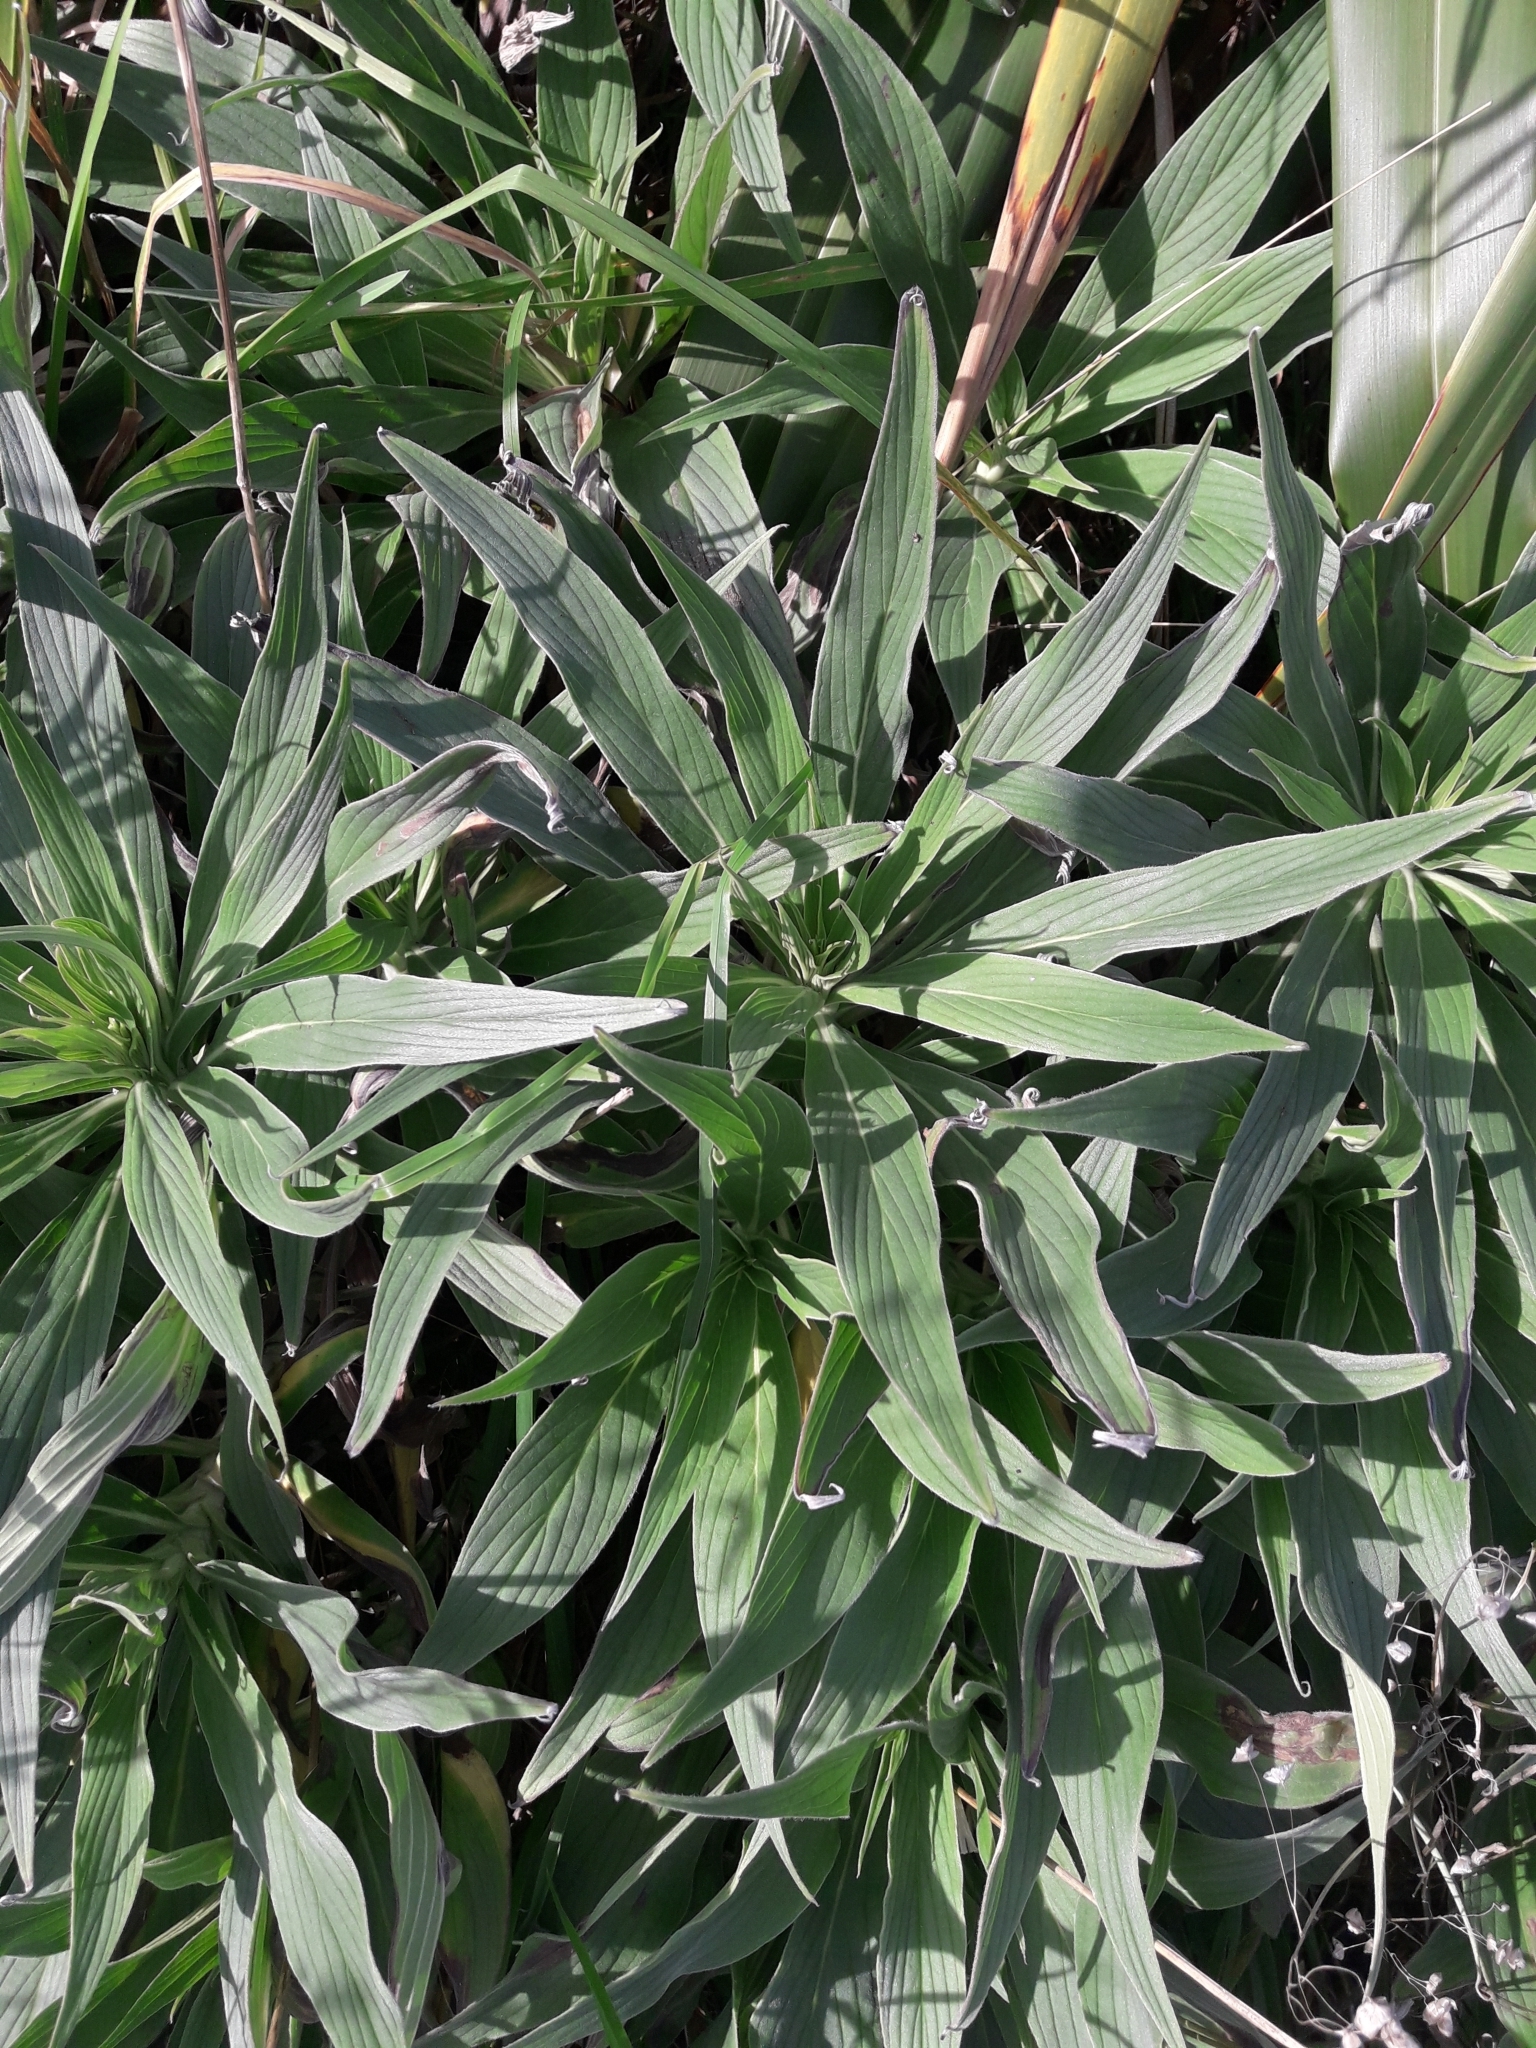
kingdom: Plantae
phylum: Tracheophyta
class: Magnoliopsida
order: Boraginales
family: Boraginaceae
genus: Echium
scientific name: Echium candicans
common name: Pride of madeira
